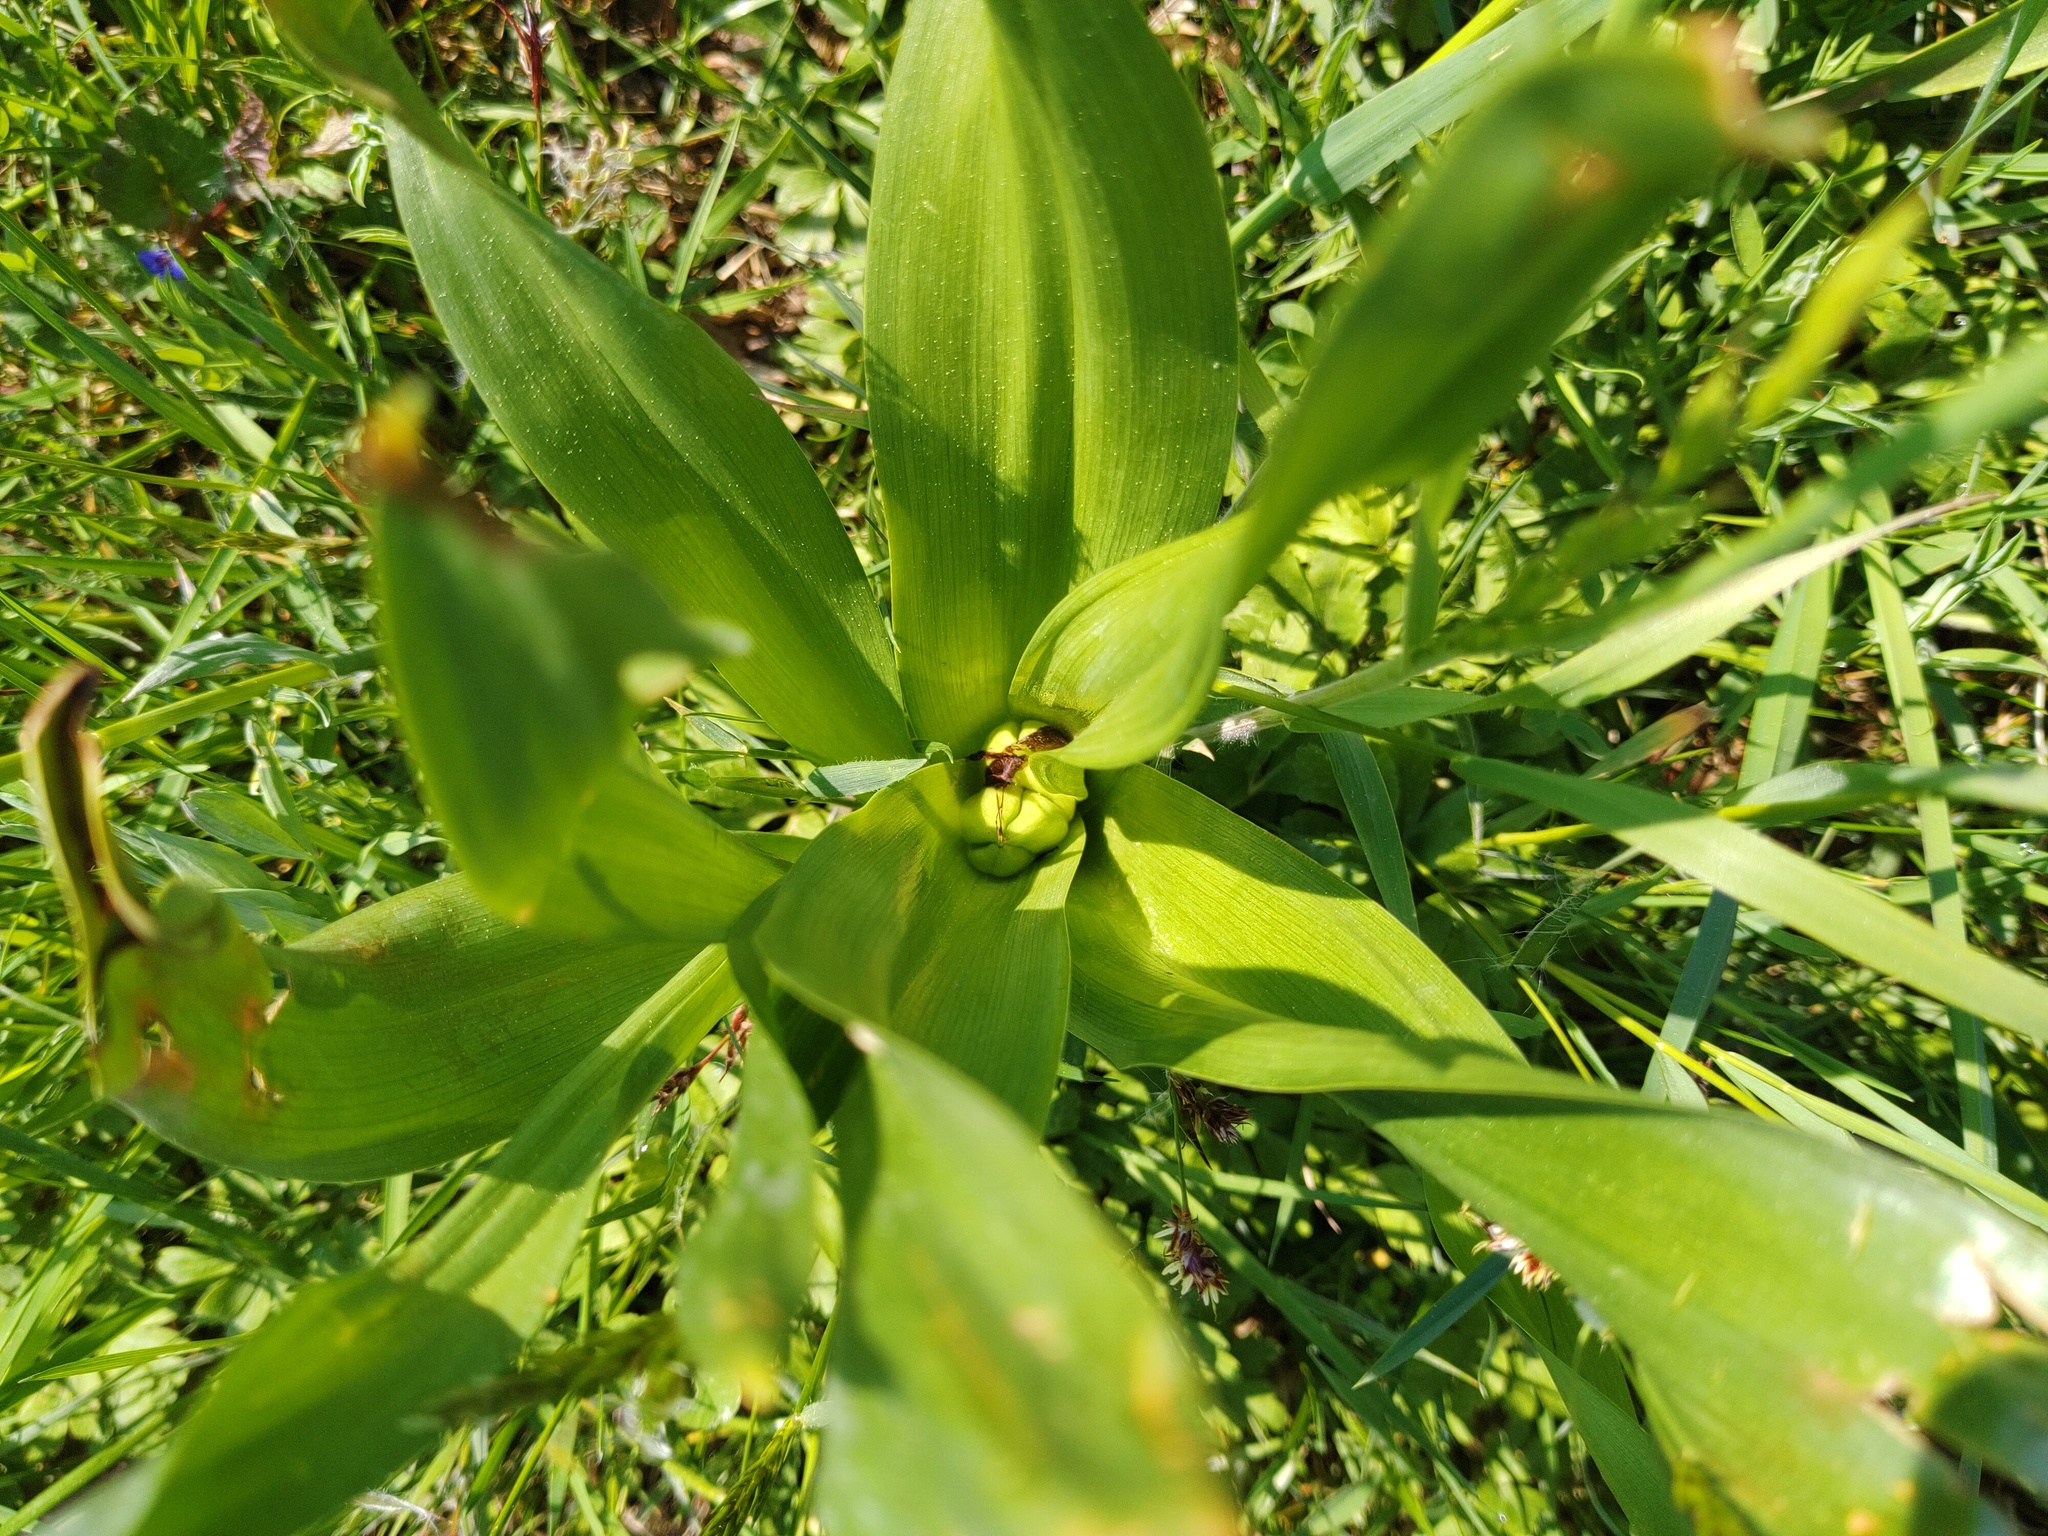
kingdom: Plantae
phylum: Tracheophyta
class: Liliopsida
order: Liliales
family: Colchicaceae
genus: Colchicum
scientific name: Colchicum autumnale
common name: Autumn crocus
